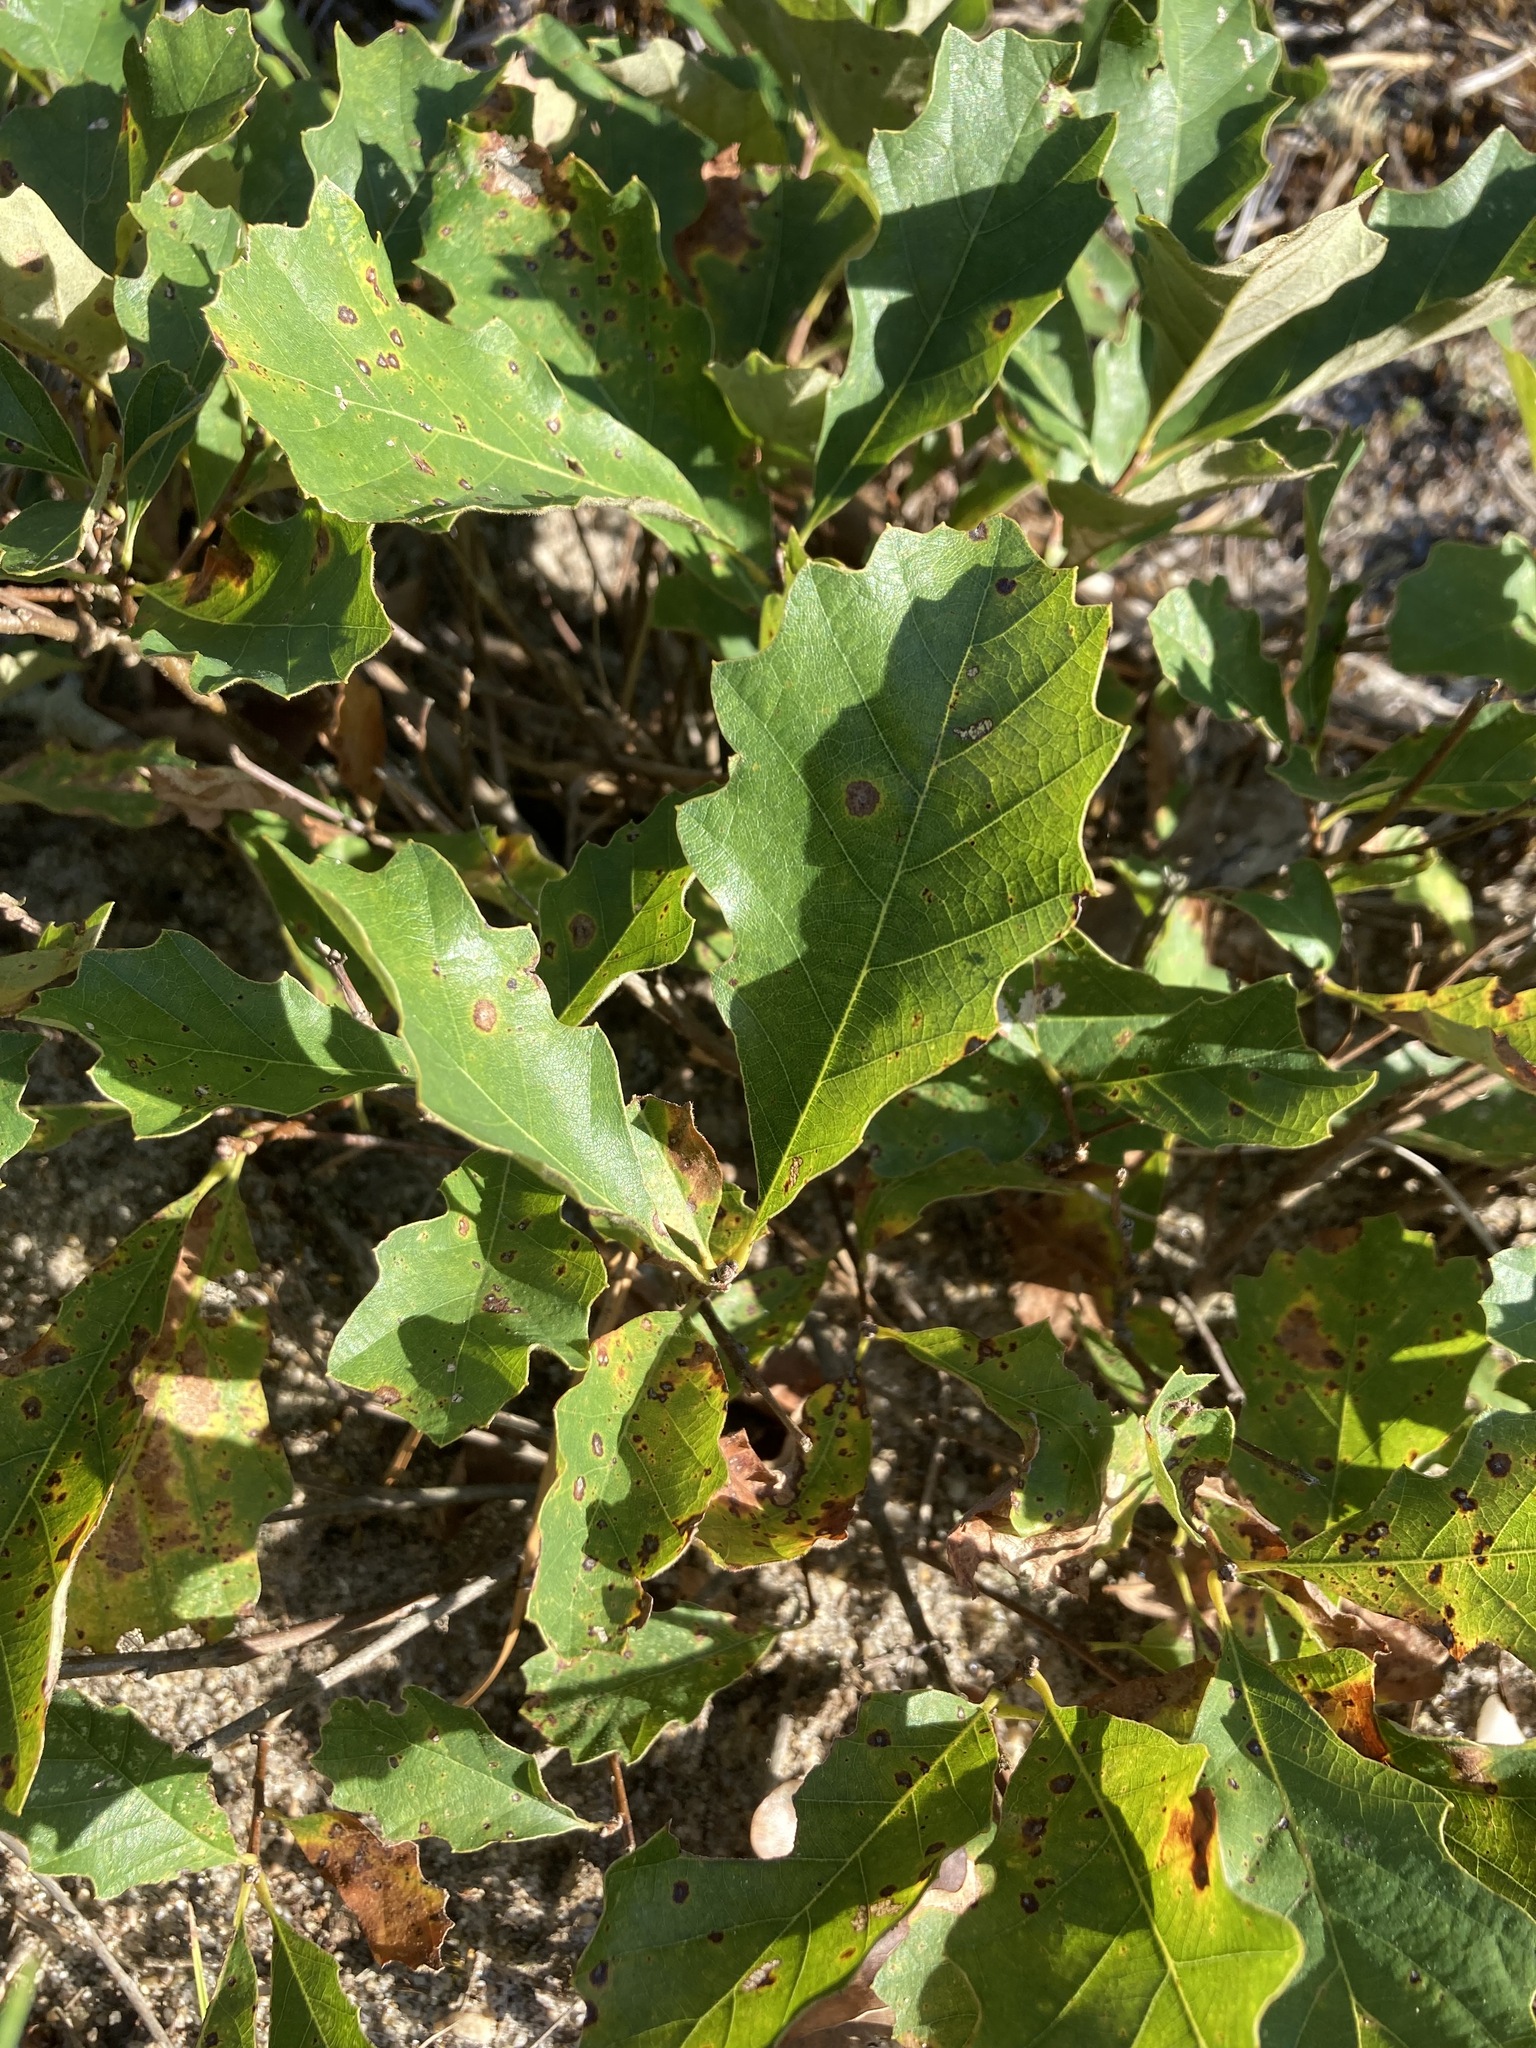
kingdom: Plantae
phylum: Tracheophyta
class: Magnoliopsida
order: Fagales
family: Fagaceae
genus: Quercus
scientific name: Quercus prinoides
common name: Dwarf chinkapin oak
